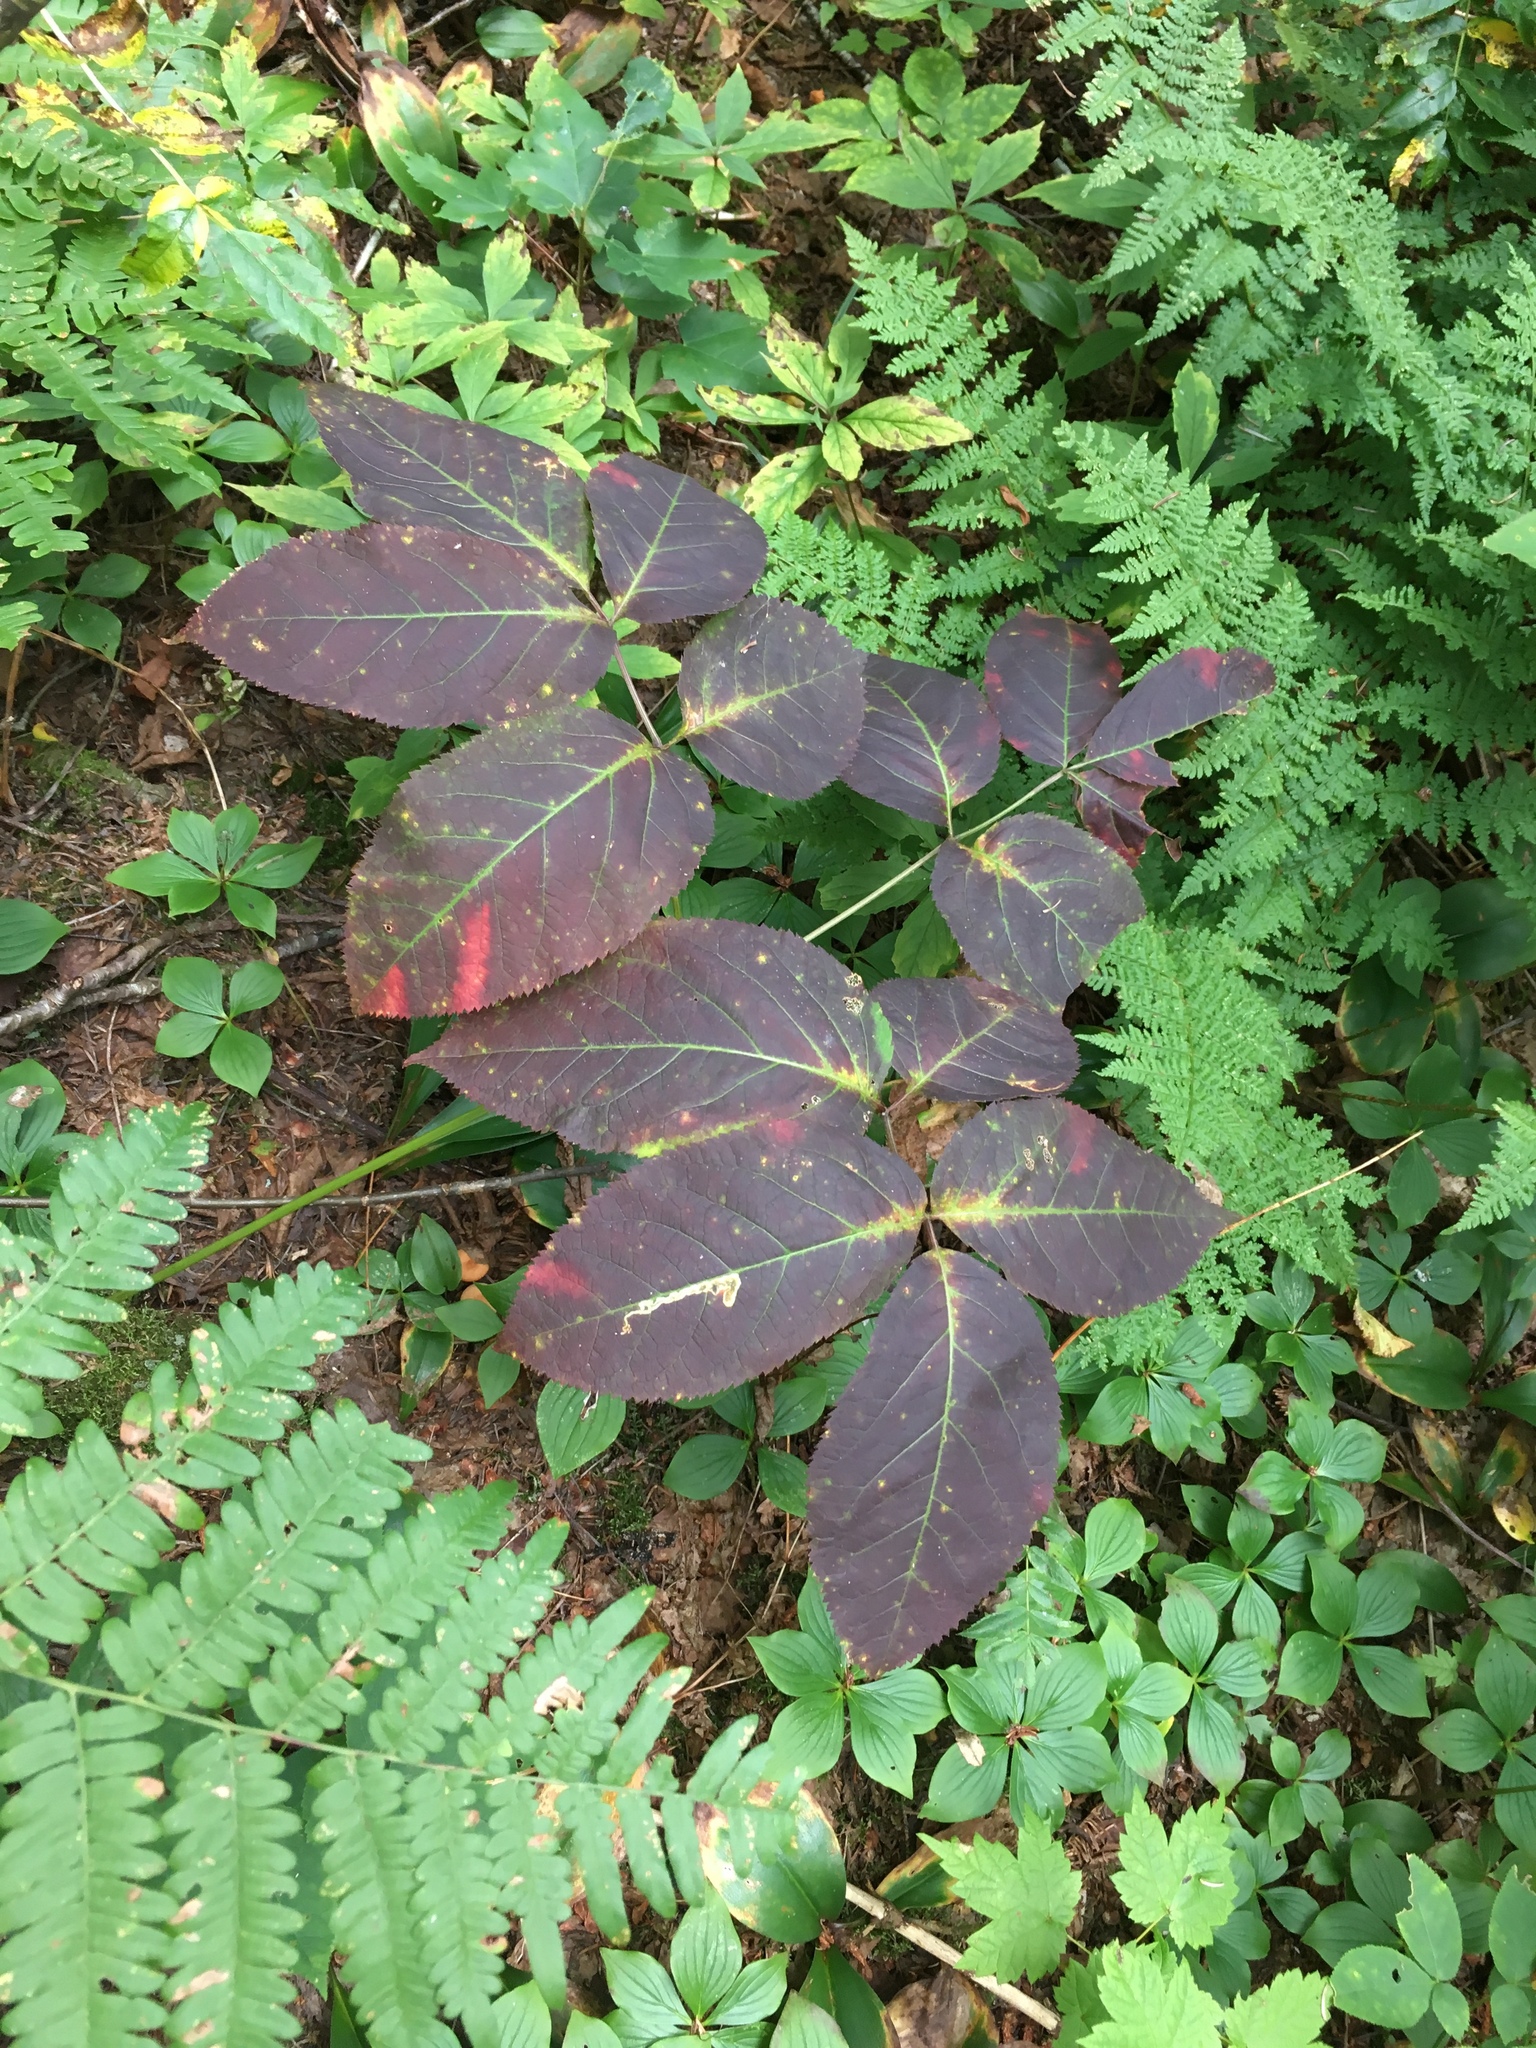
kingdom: Plantae
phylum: Tracheophyta
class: Magnoliopsida
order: Apiales
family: Araliaceae
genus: Aralia
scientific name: Aralia nudicaulis
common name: Wild sarsaparilla
